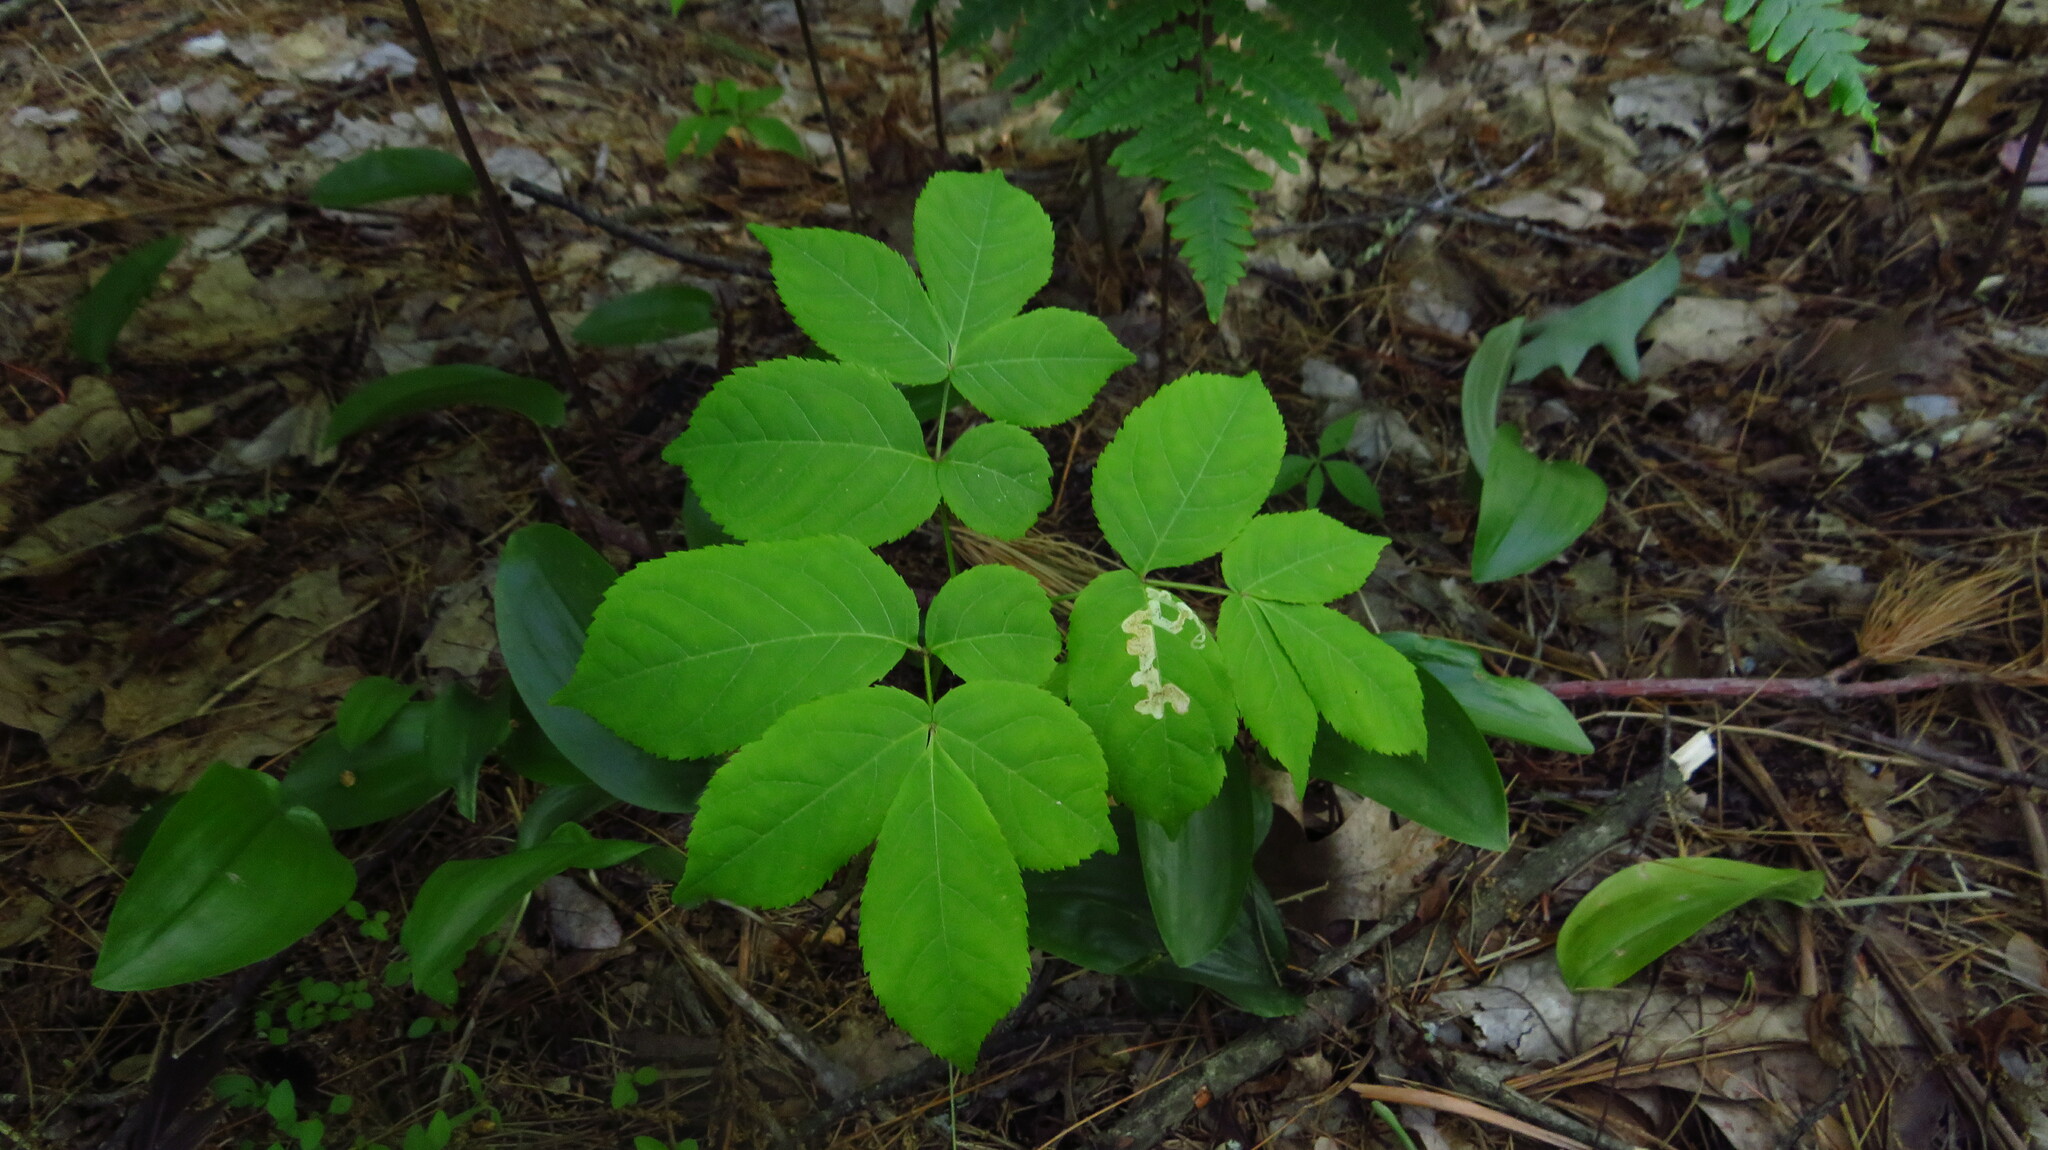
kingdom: Plantae
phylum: Tracheophyta
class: Magnoliopsida
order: Apiales
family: Araliaceae
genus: Aralia
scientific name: Aralia nudicaulis
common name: Wild sarsaparilla
